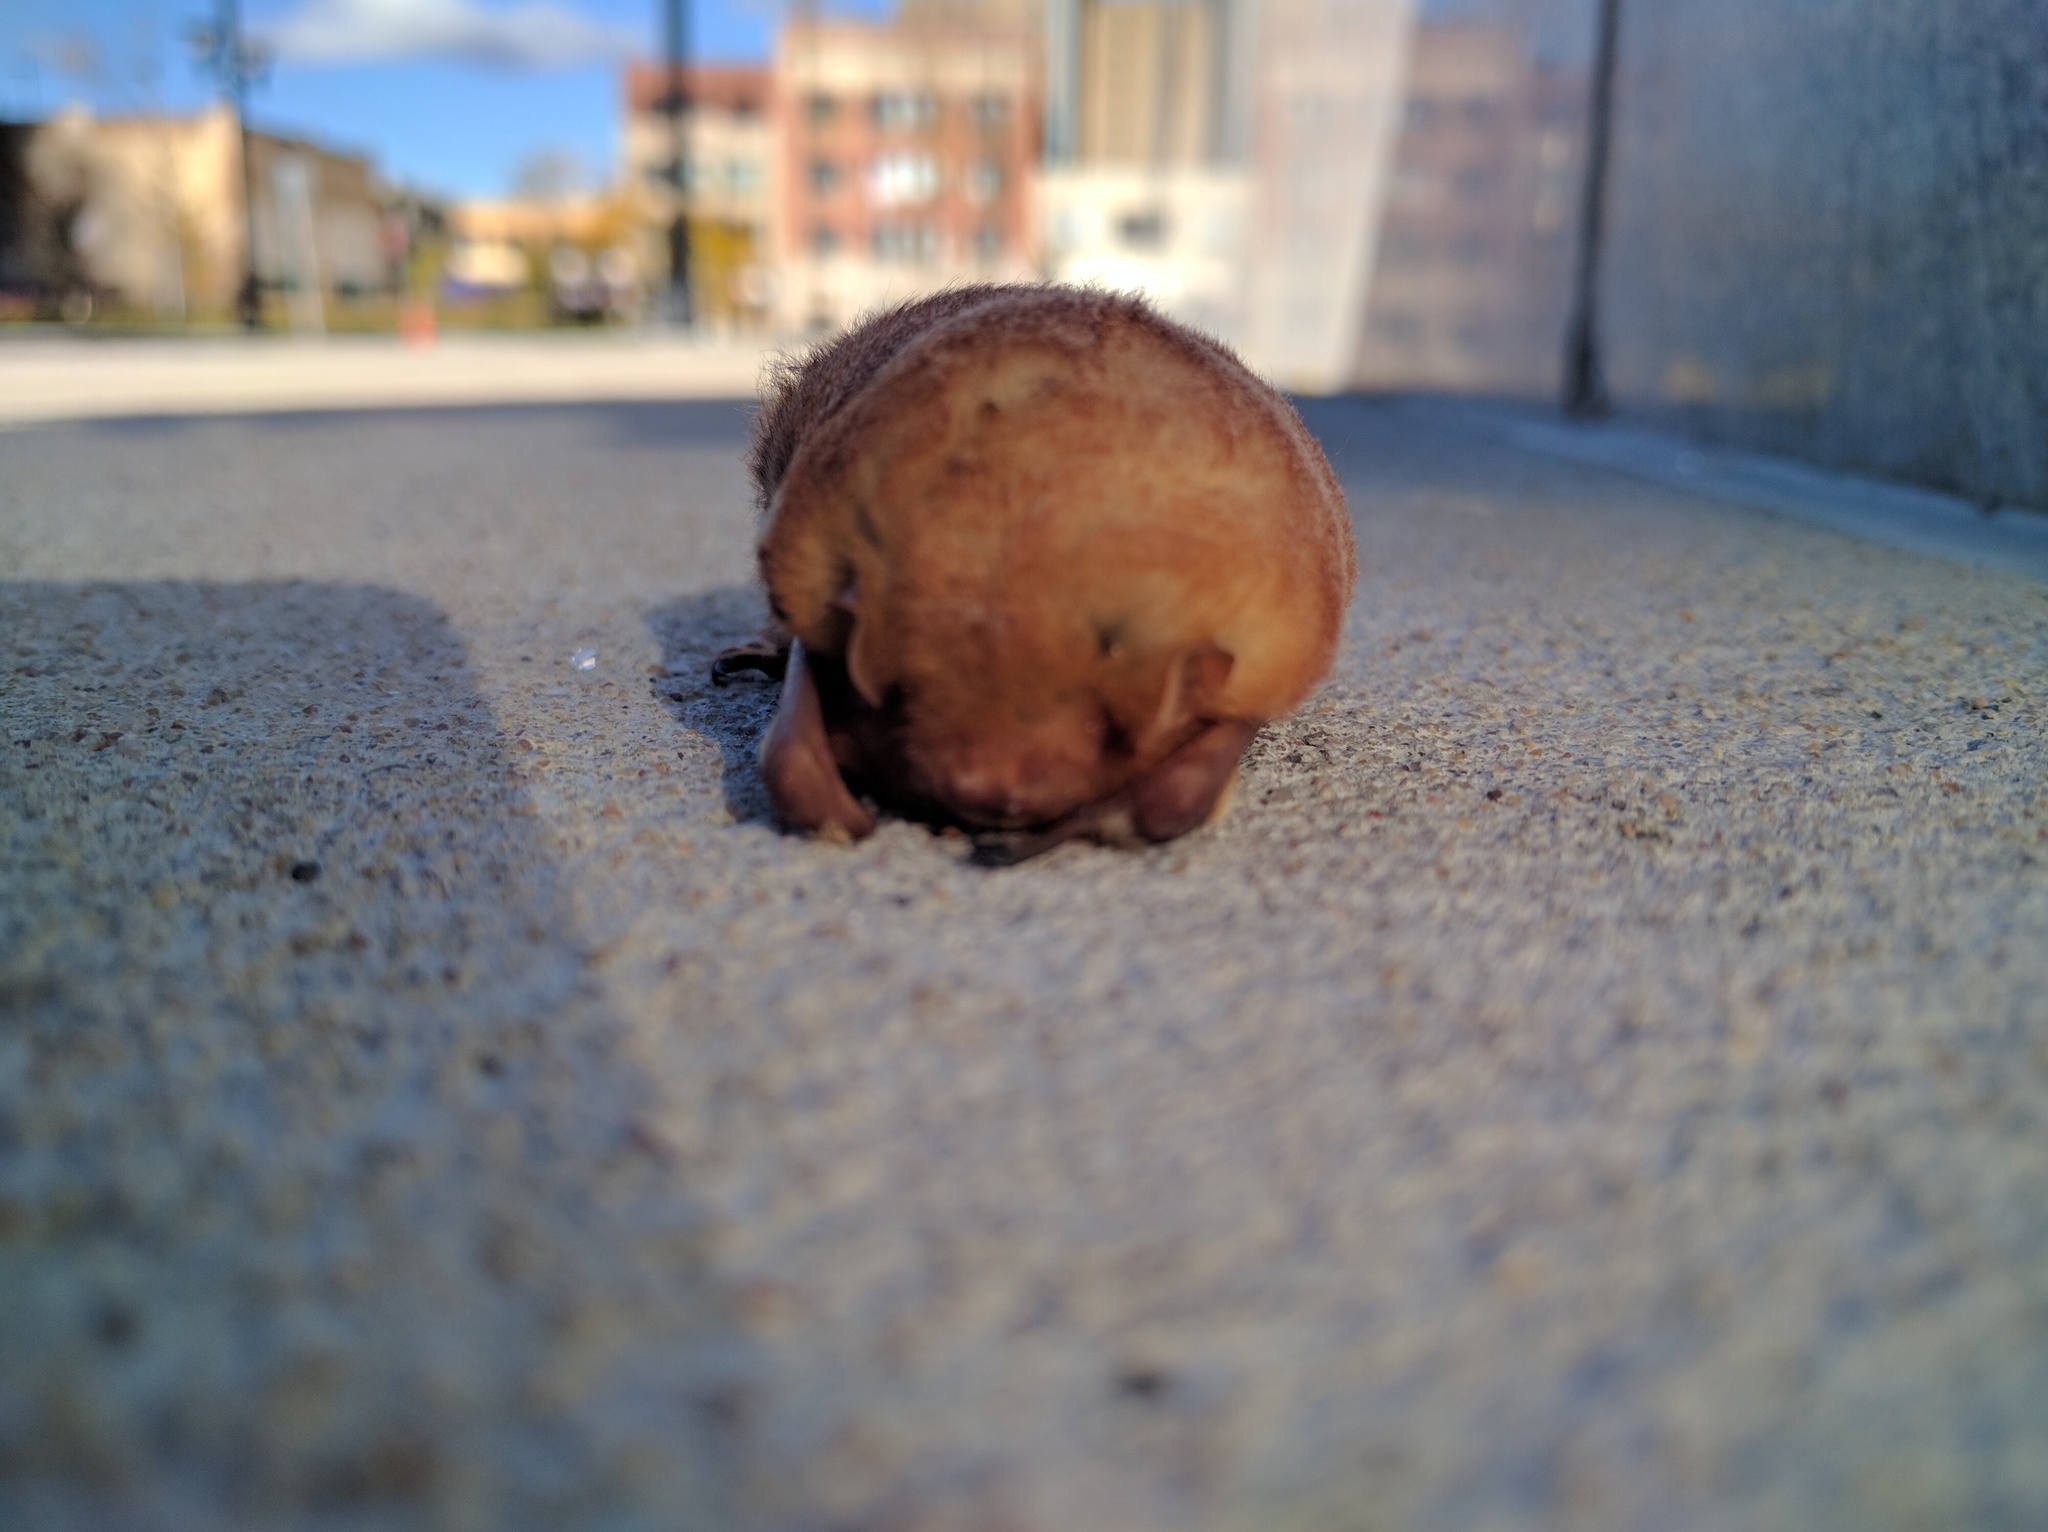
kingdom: Animalia
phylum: Chordata
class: Mammalia
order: Chiroptera
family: Vespertilionidae
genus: Lasiurus
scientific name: Lasiurus borealis
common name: Eastern red bat
